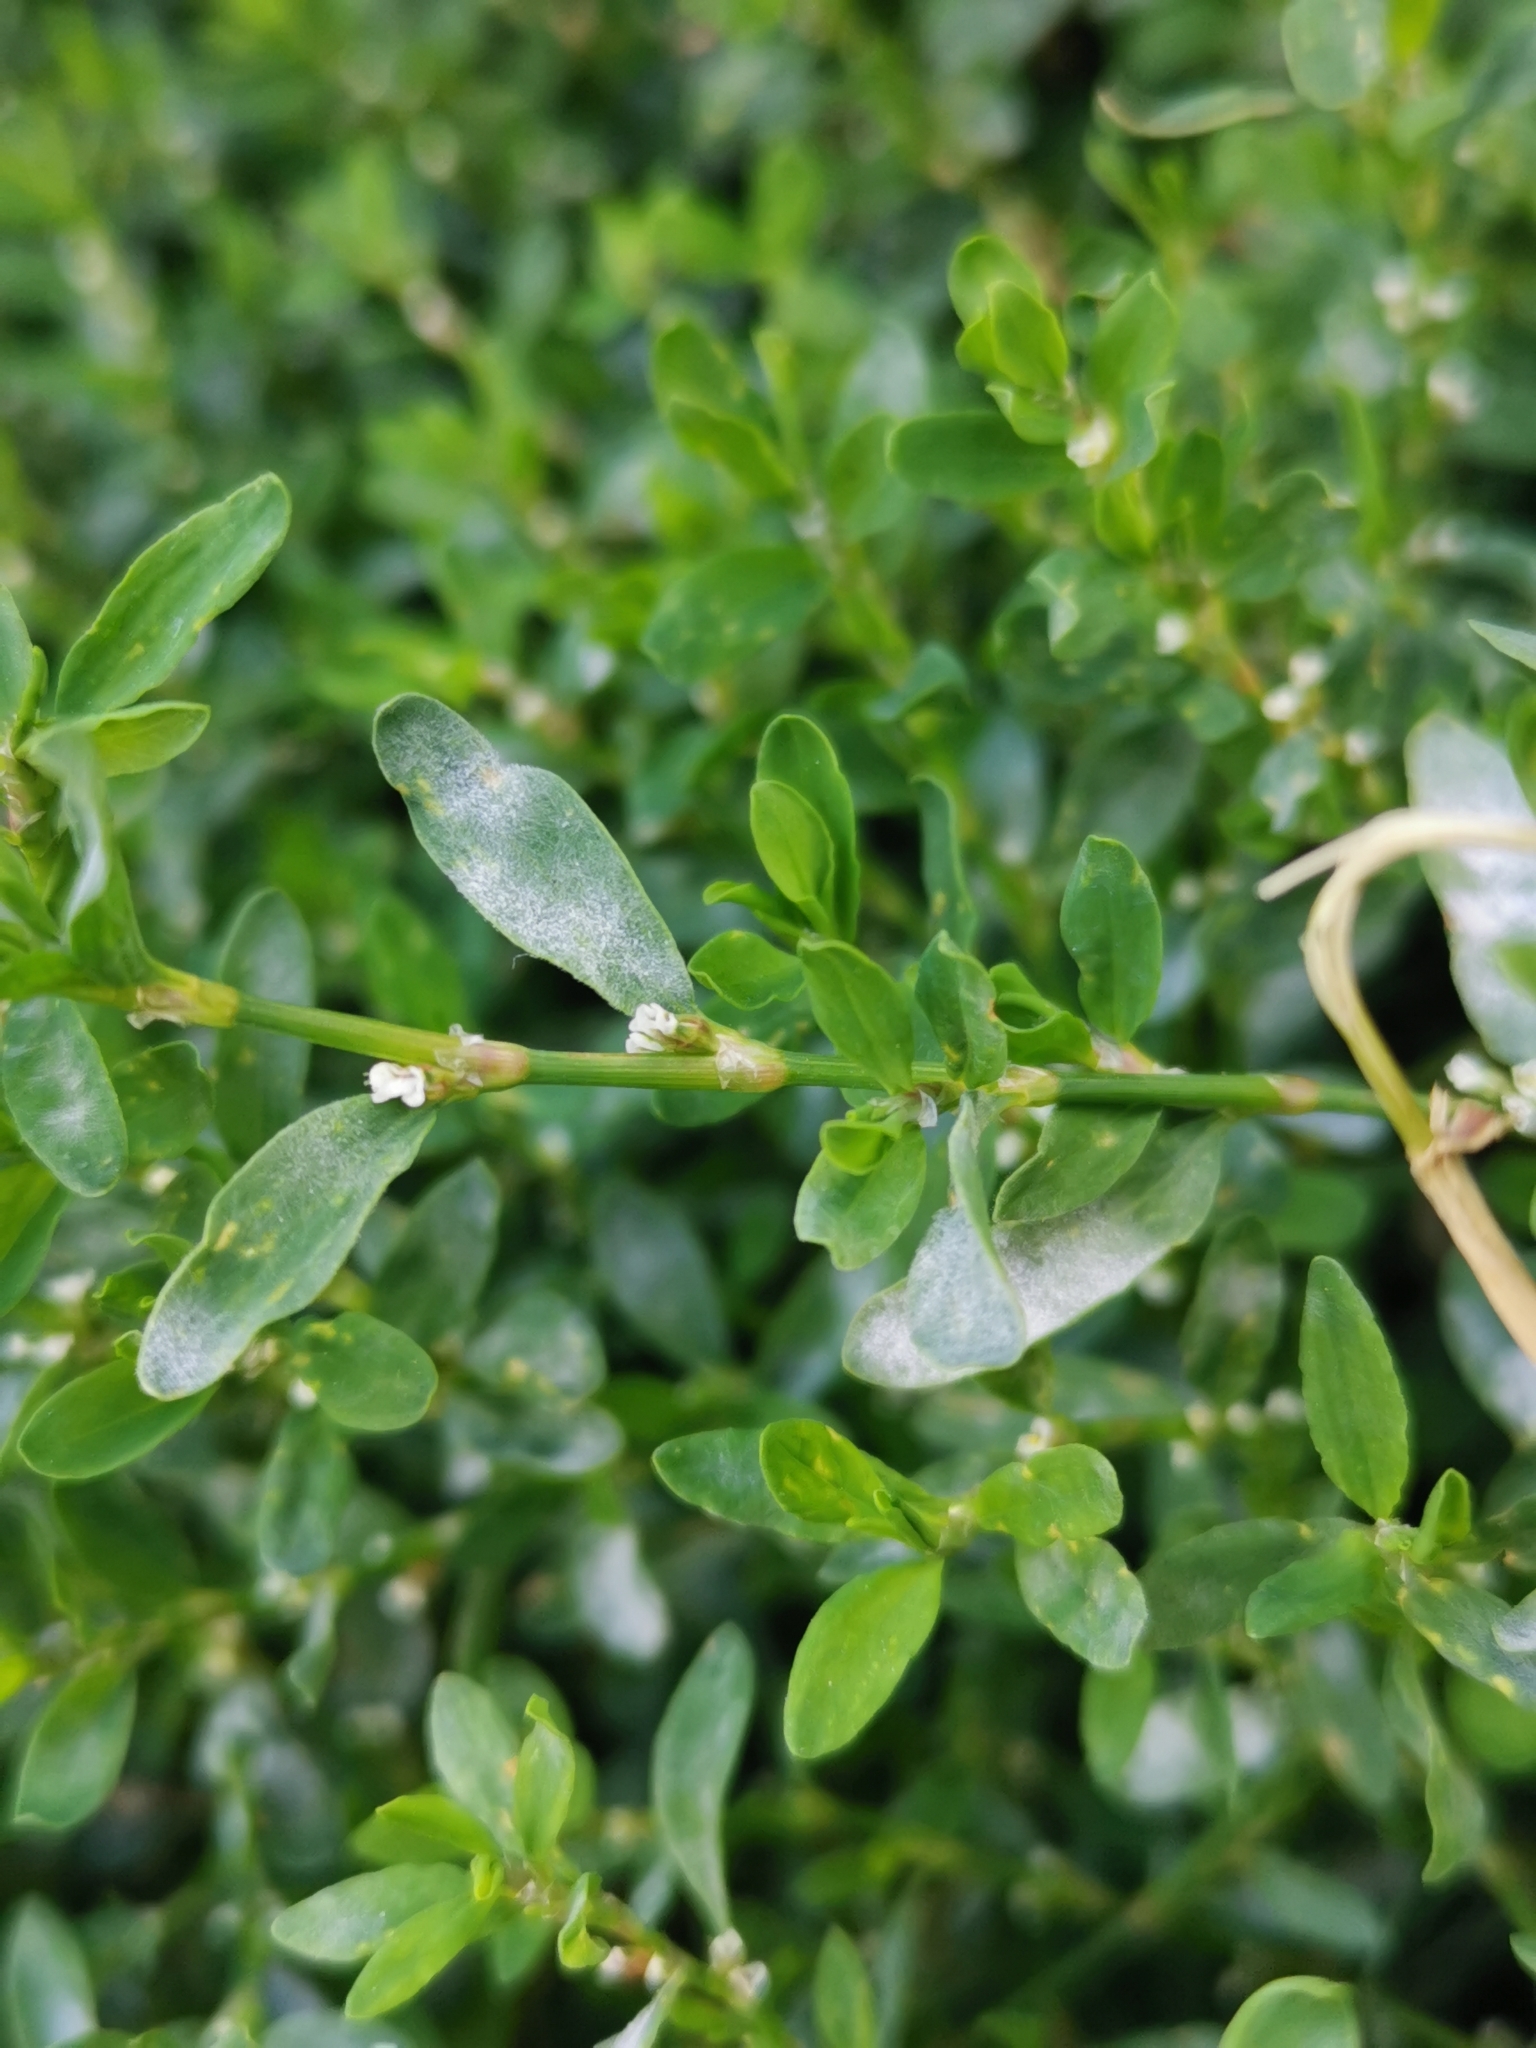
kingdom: Fungi
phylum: Ascomycota
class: Leotiomycetes
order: Helotiales
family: Erysiphaceae
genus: Erysiphe
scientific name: Erysiphe polygoni
